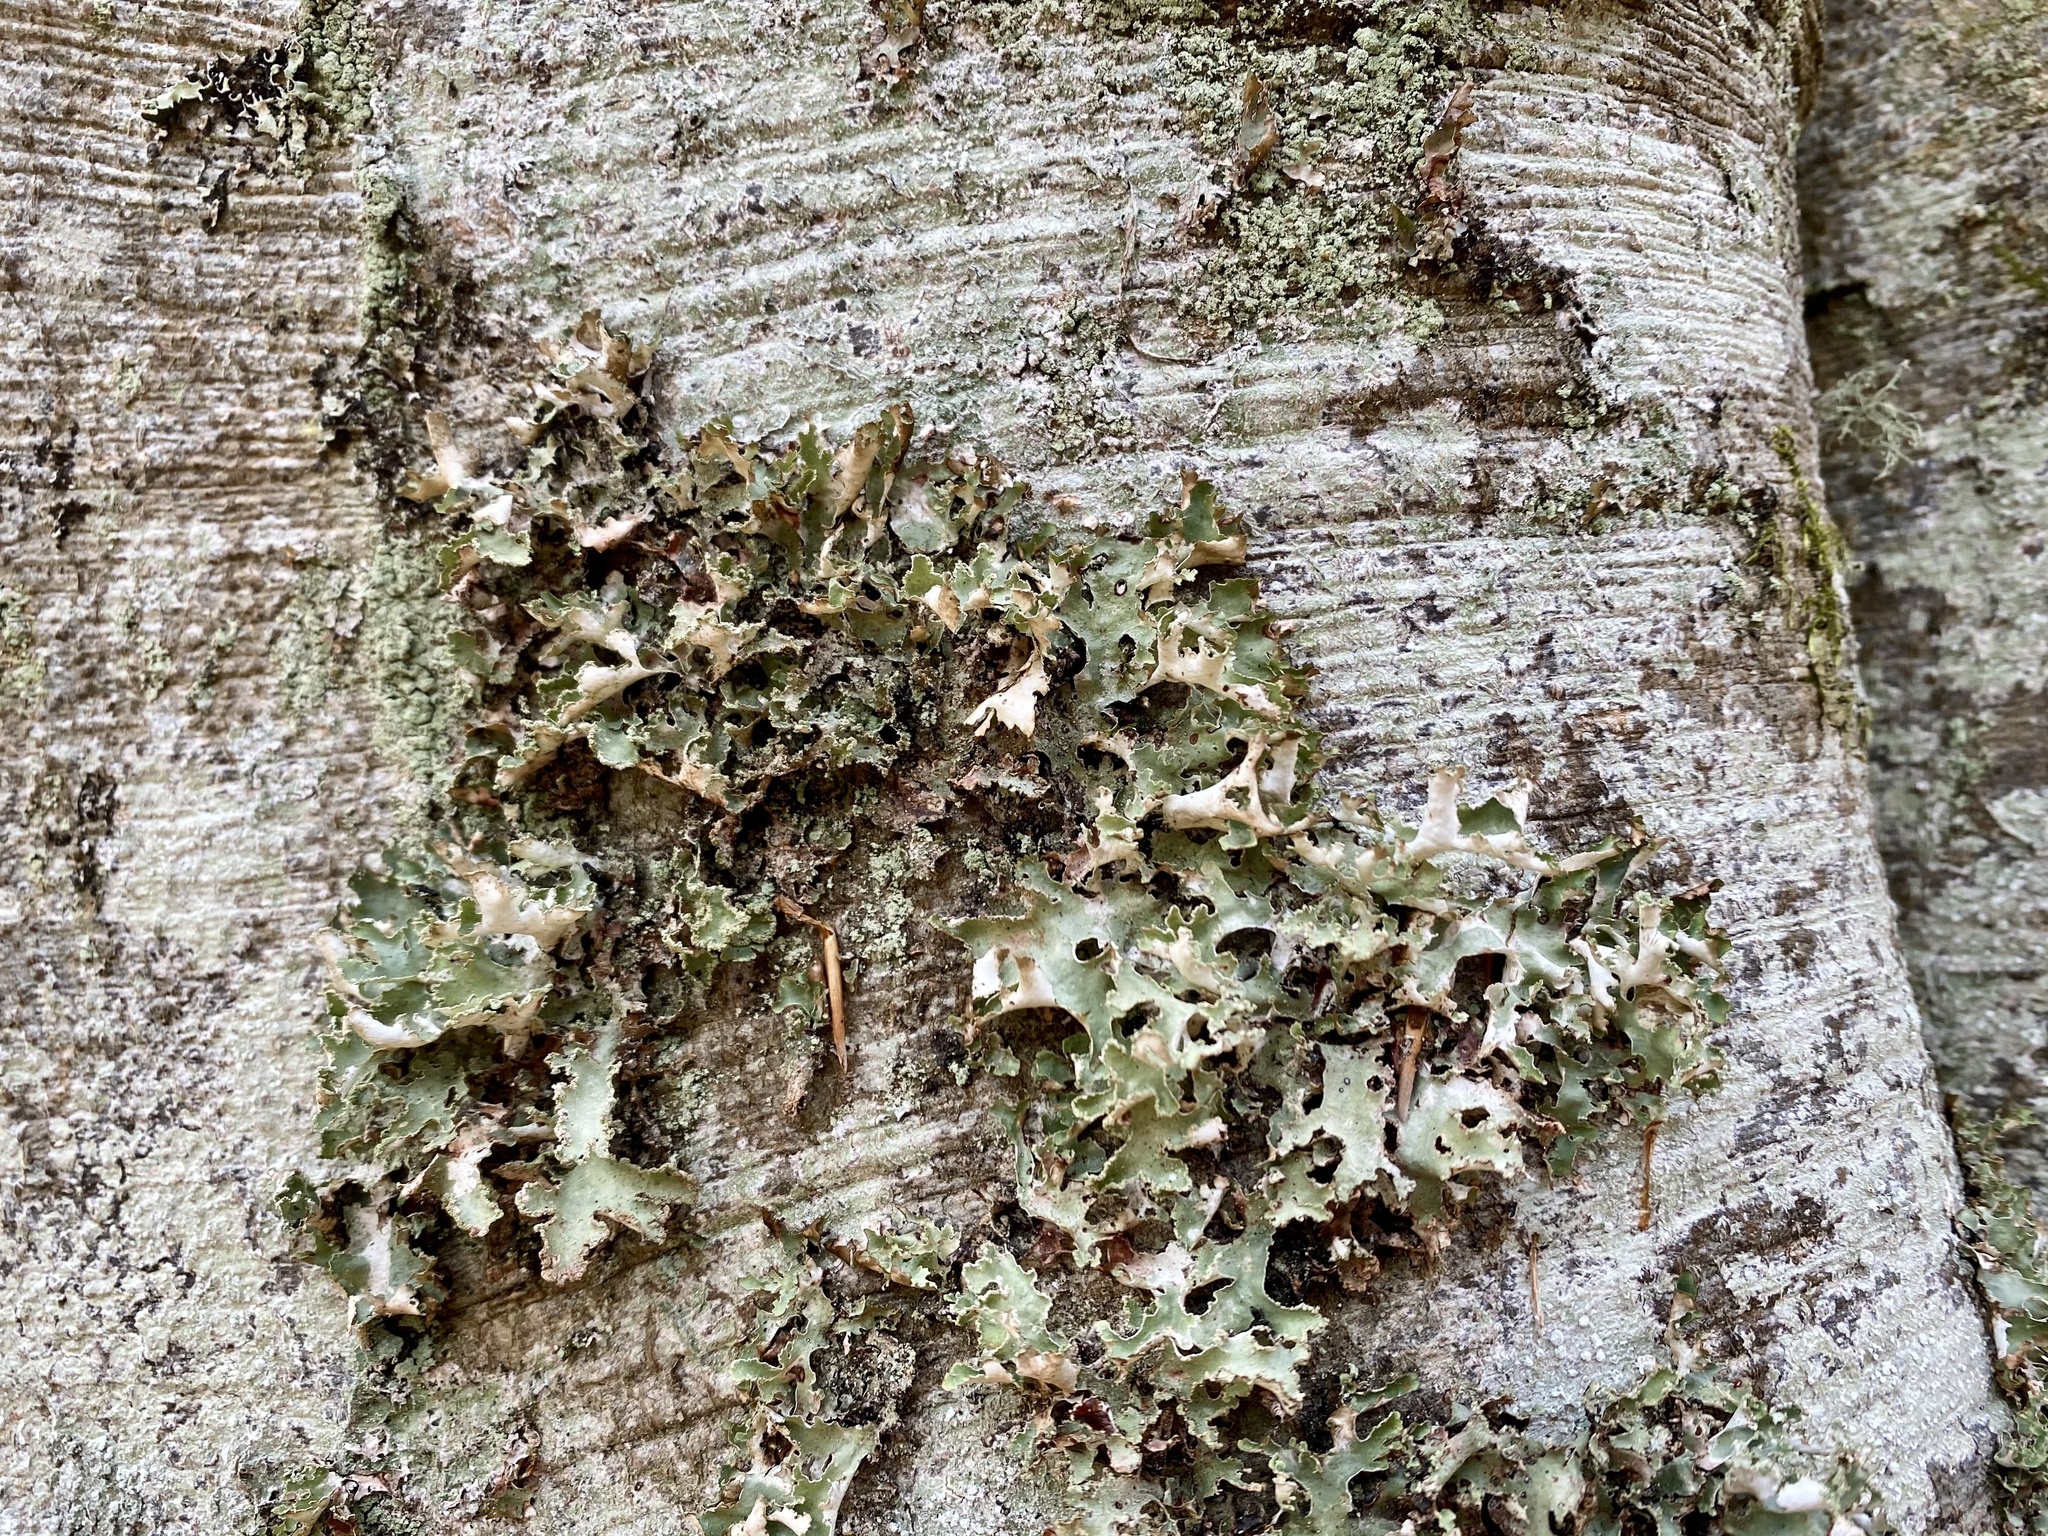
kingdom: Fungi
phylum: Ascomycota
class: Lecanoromycetes
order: Lecanorales
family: Parmeliaceae
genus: Platismatia
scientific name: Platismatia glauca
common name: Varied rag lichen
